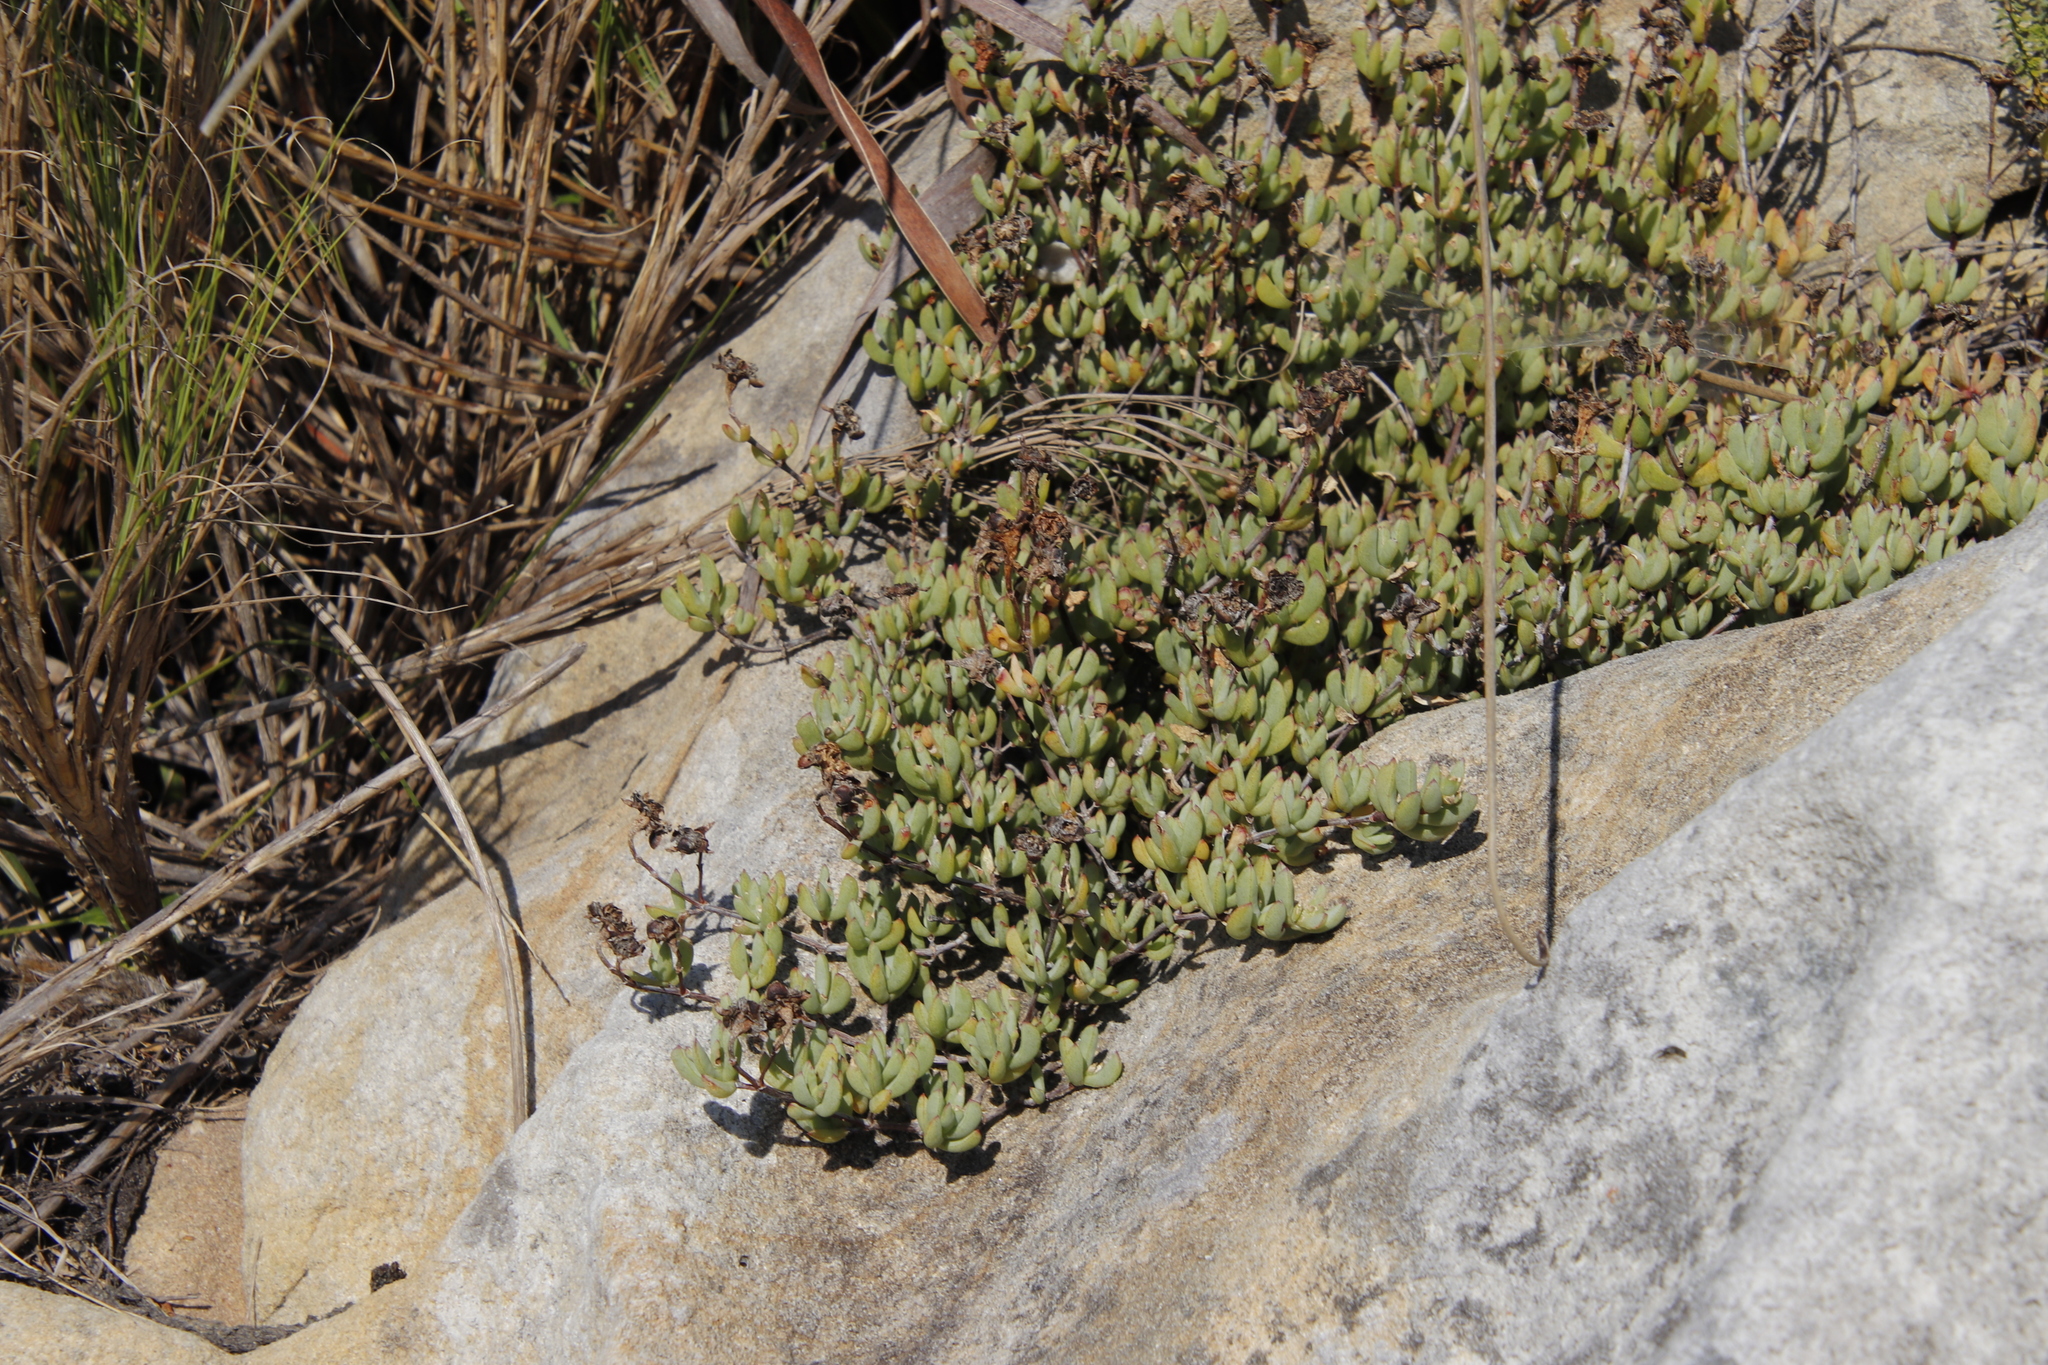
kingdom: Plantae
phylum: Tracheophyta
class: Magnoliopsida
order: Caryophyllales
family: Aizoaceae
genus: Oscularia
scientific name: Oscularia falciformis
